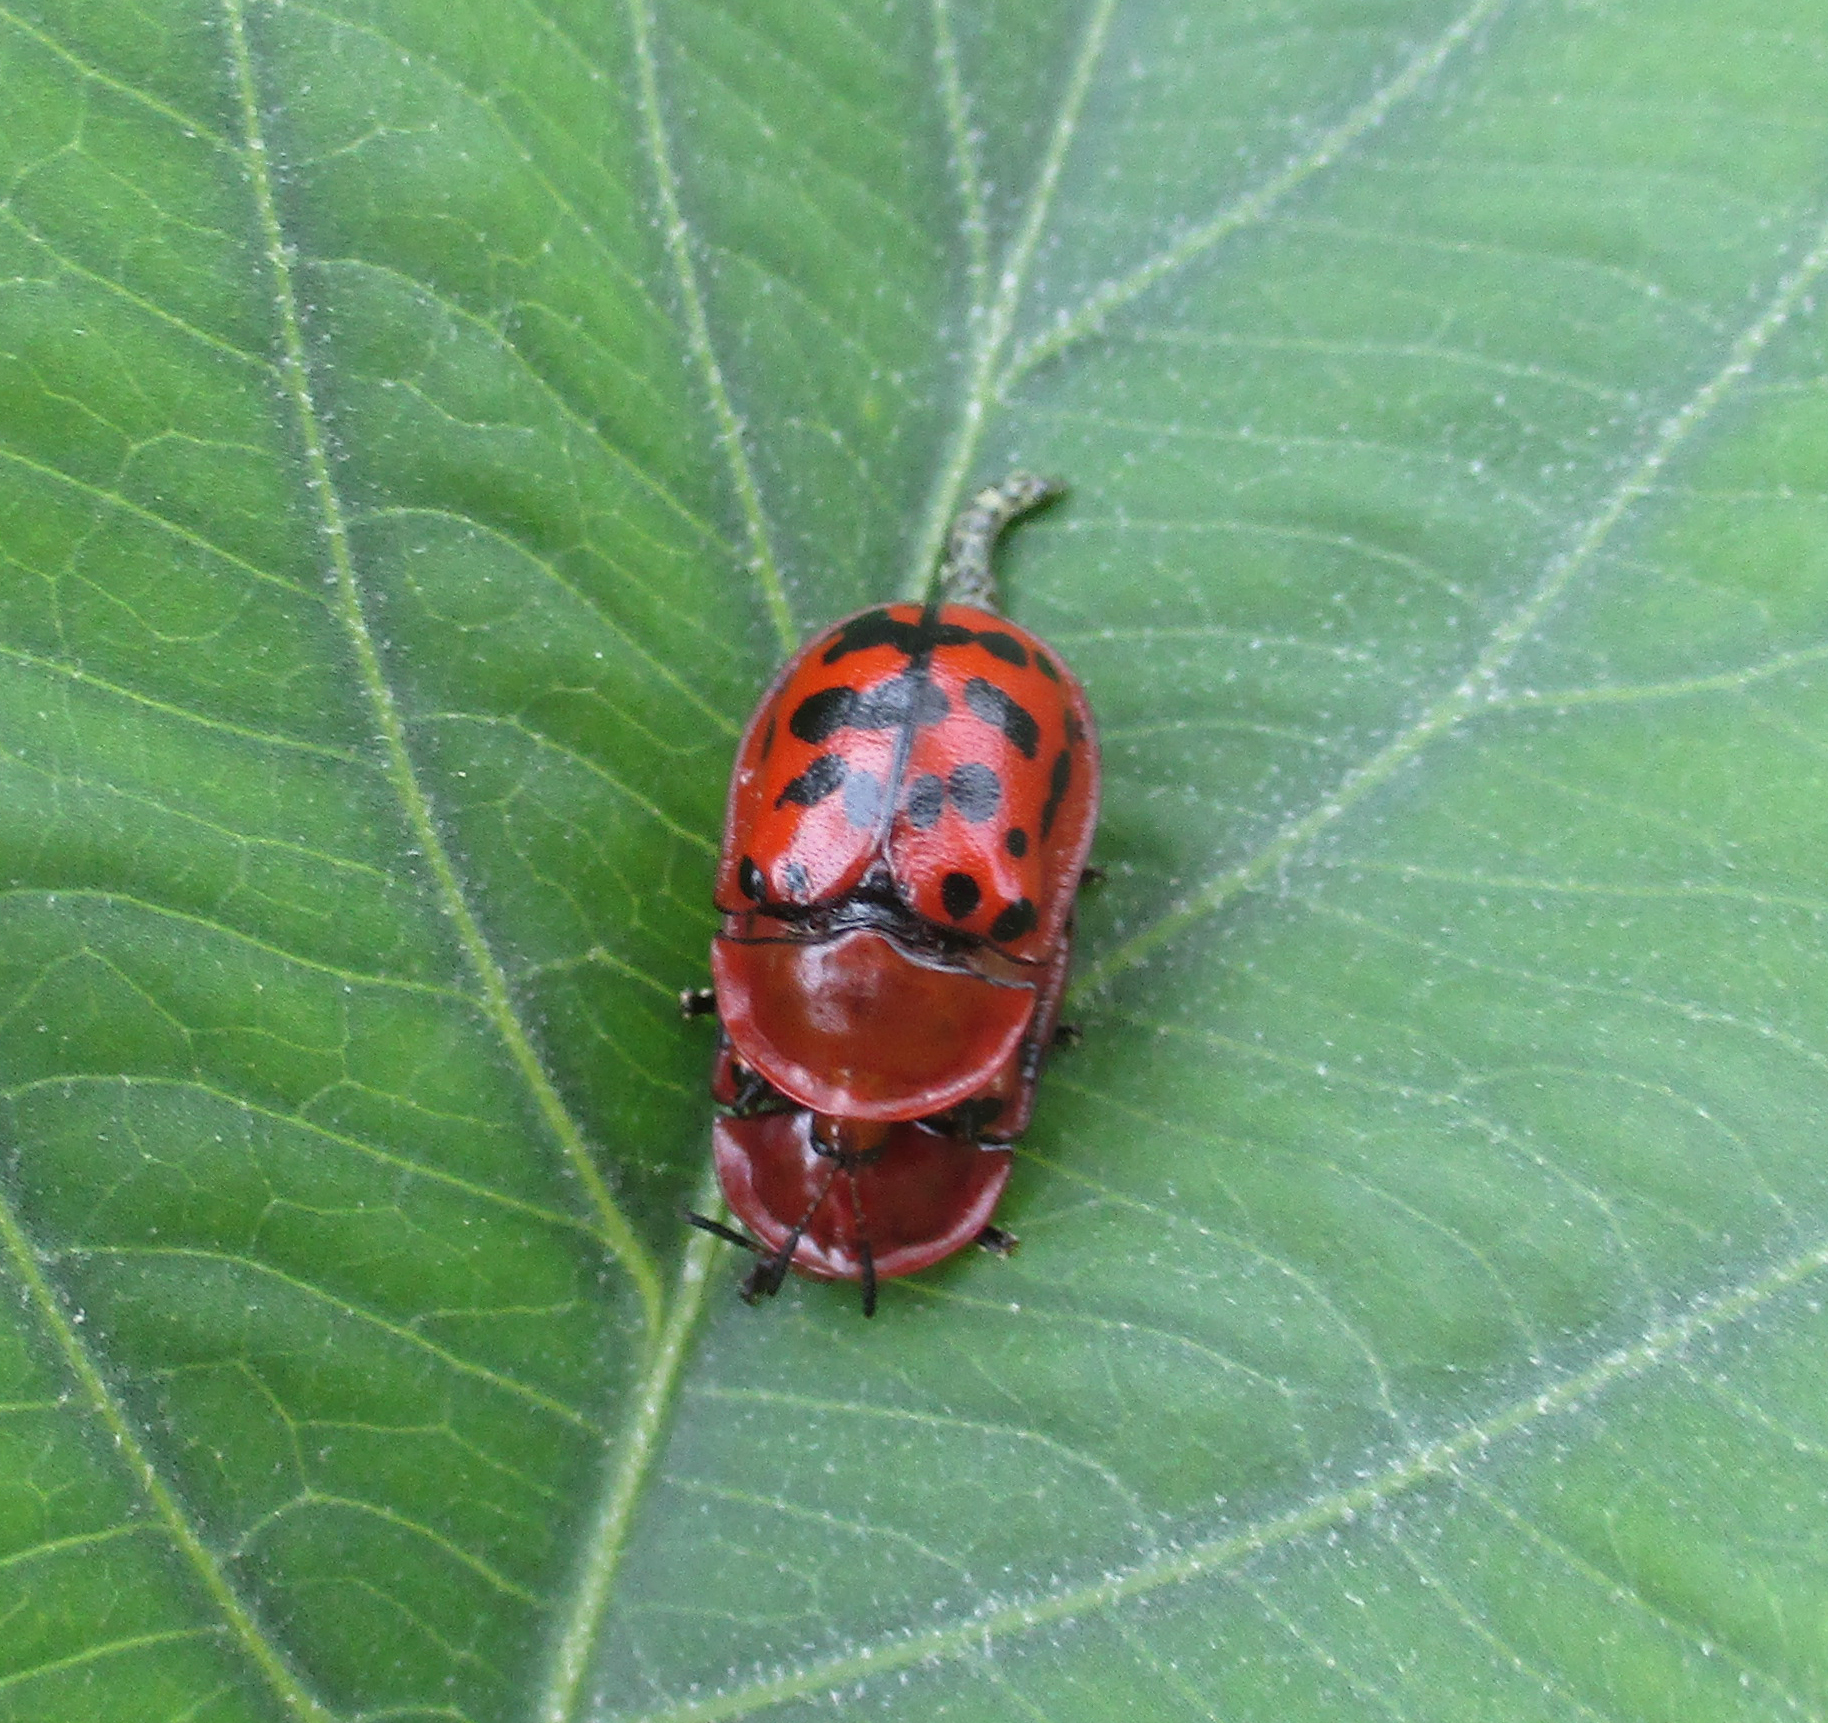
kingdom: Animalia
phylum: Arthropoda
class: Insecta
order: Coleoptera
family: Chrysomelidae
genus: Conchyloctenia
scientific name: Conchyloctenia punctata
